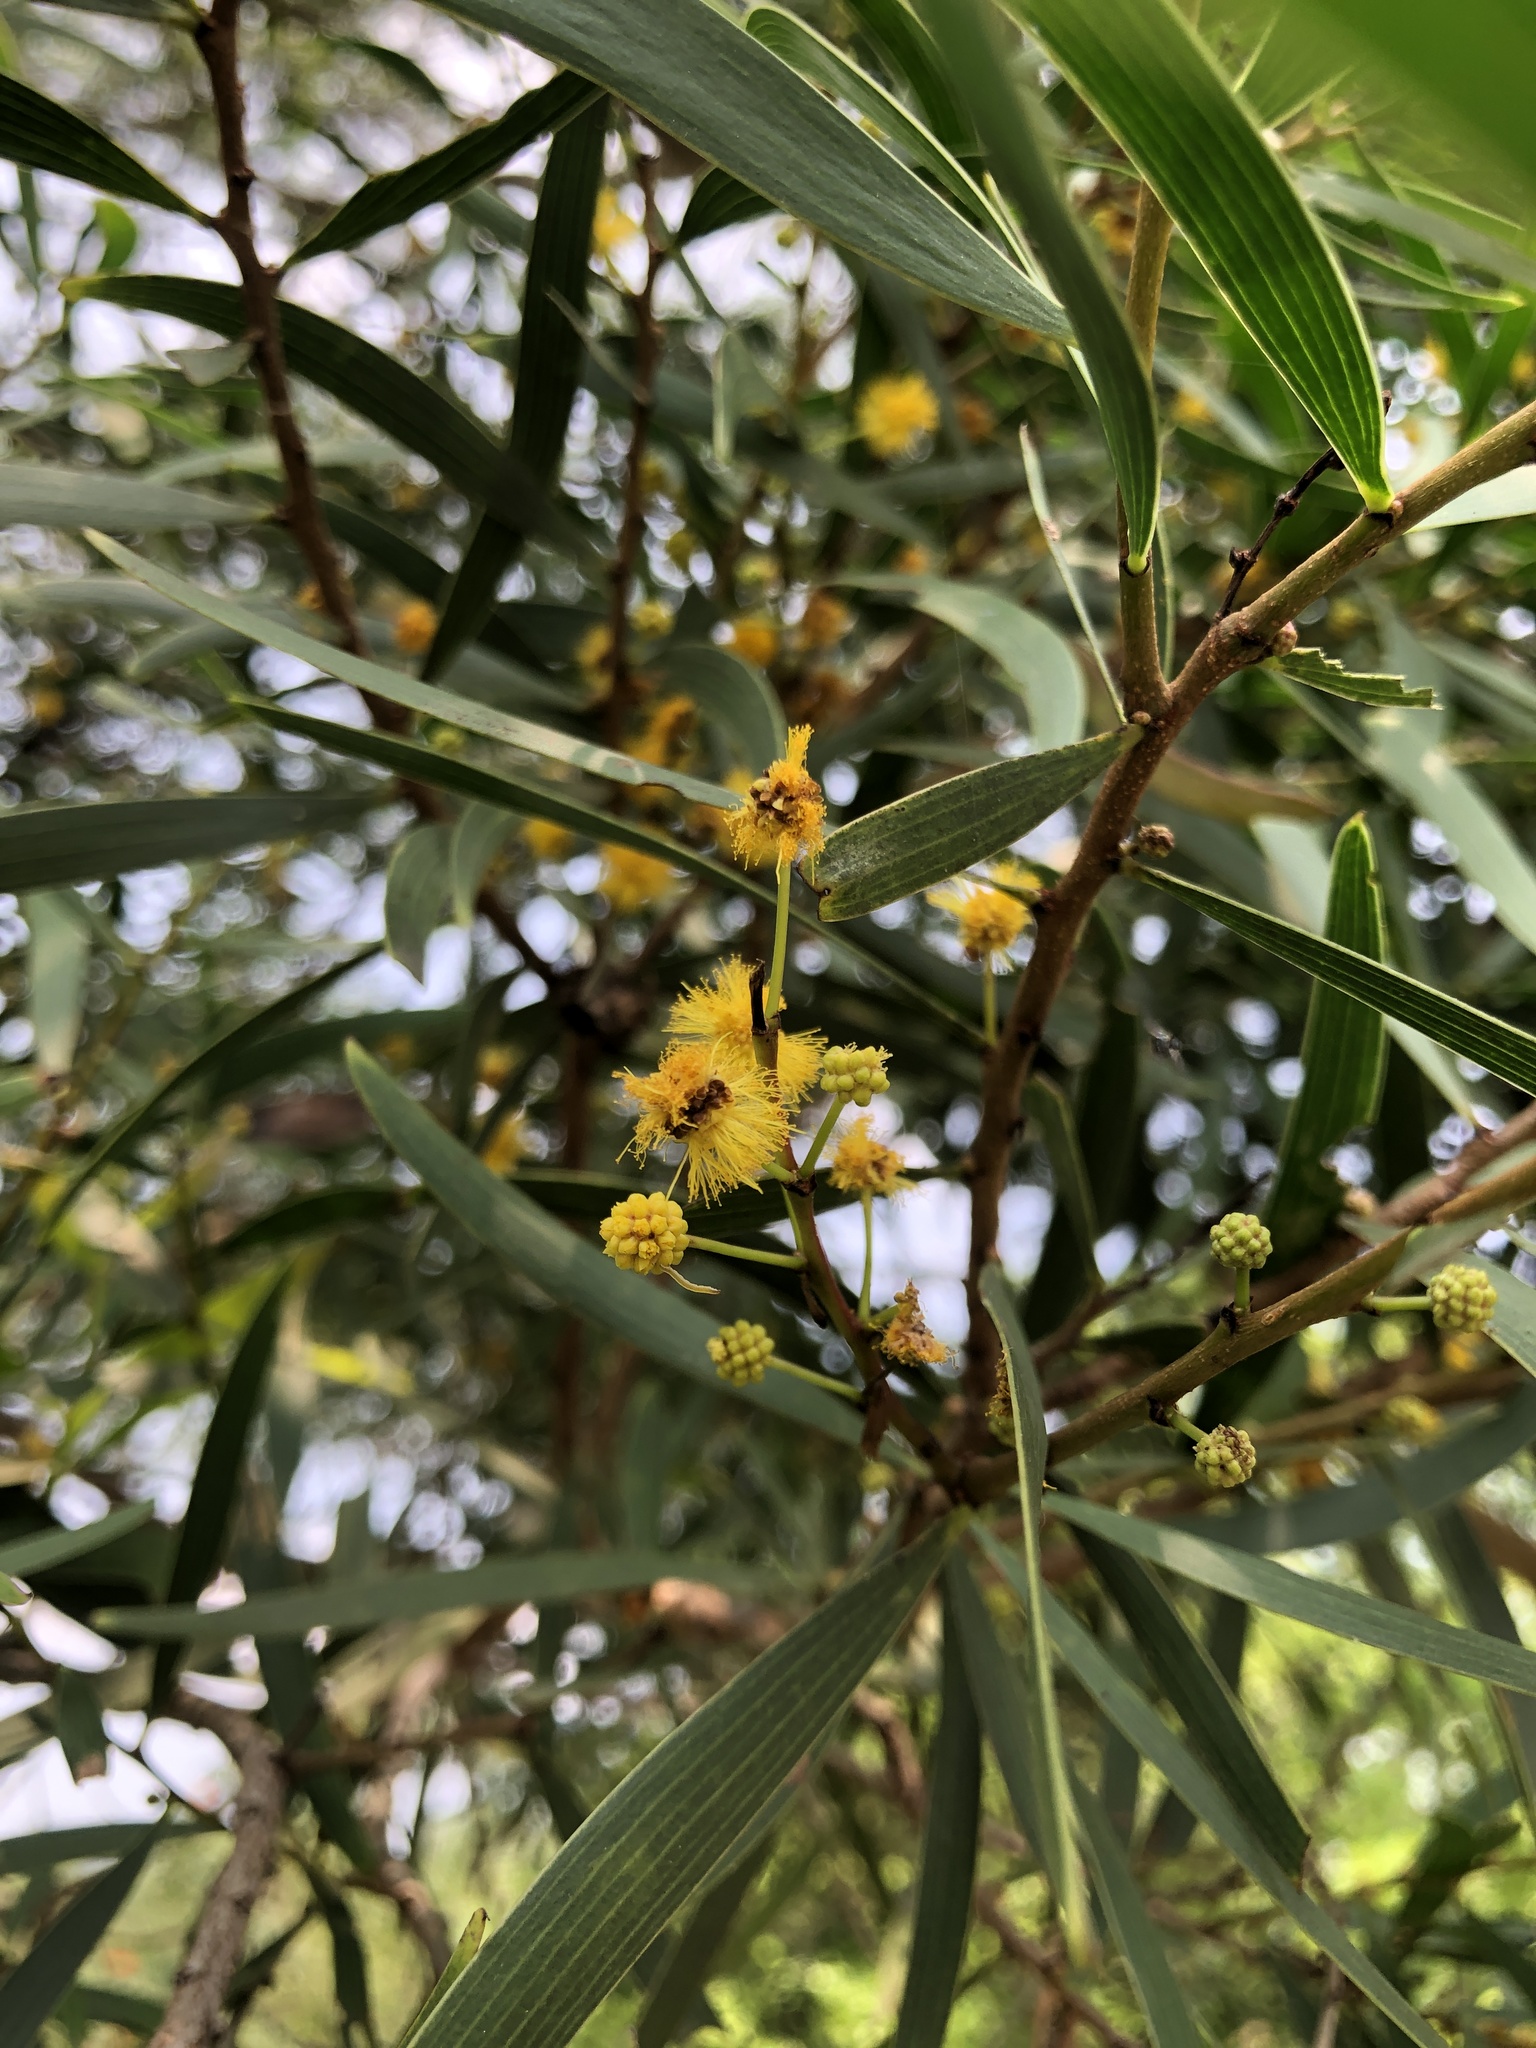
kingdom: Plantae
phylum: Tracheophyta
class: Magnoliopsida
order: Fabales
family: Fabaceae
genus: Acacia
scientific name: Acacia confusa
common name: Formosan koa
